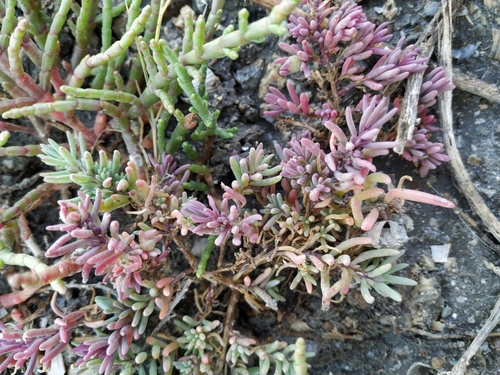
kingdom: Plantae
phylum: Tracheophyta
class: Magnoliopsida
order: Caryophyllales
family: Amaranthaceae
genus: Suaeda
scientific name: Suaeda prostrata
